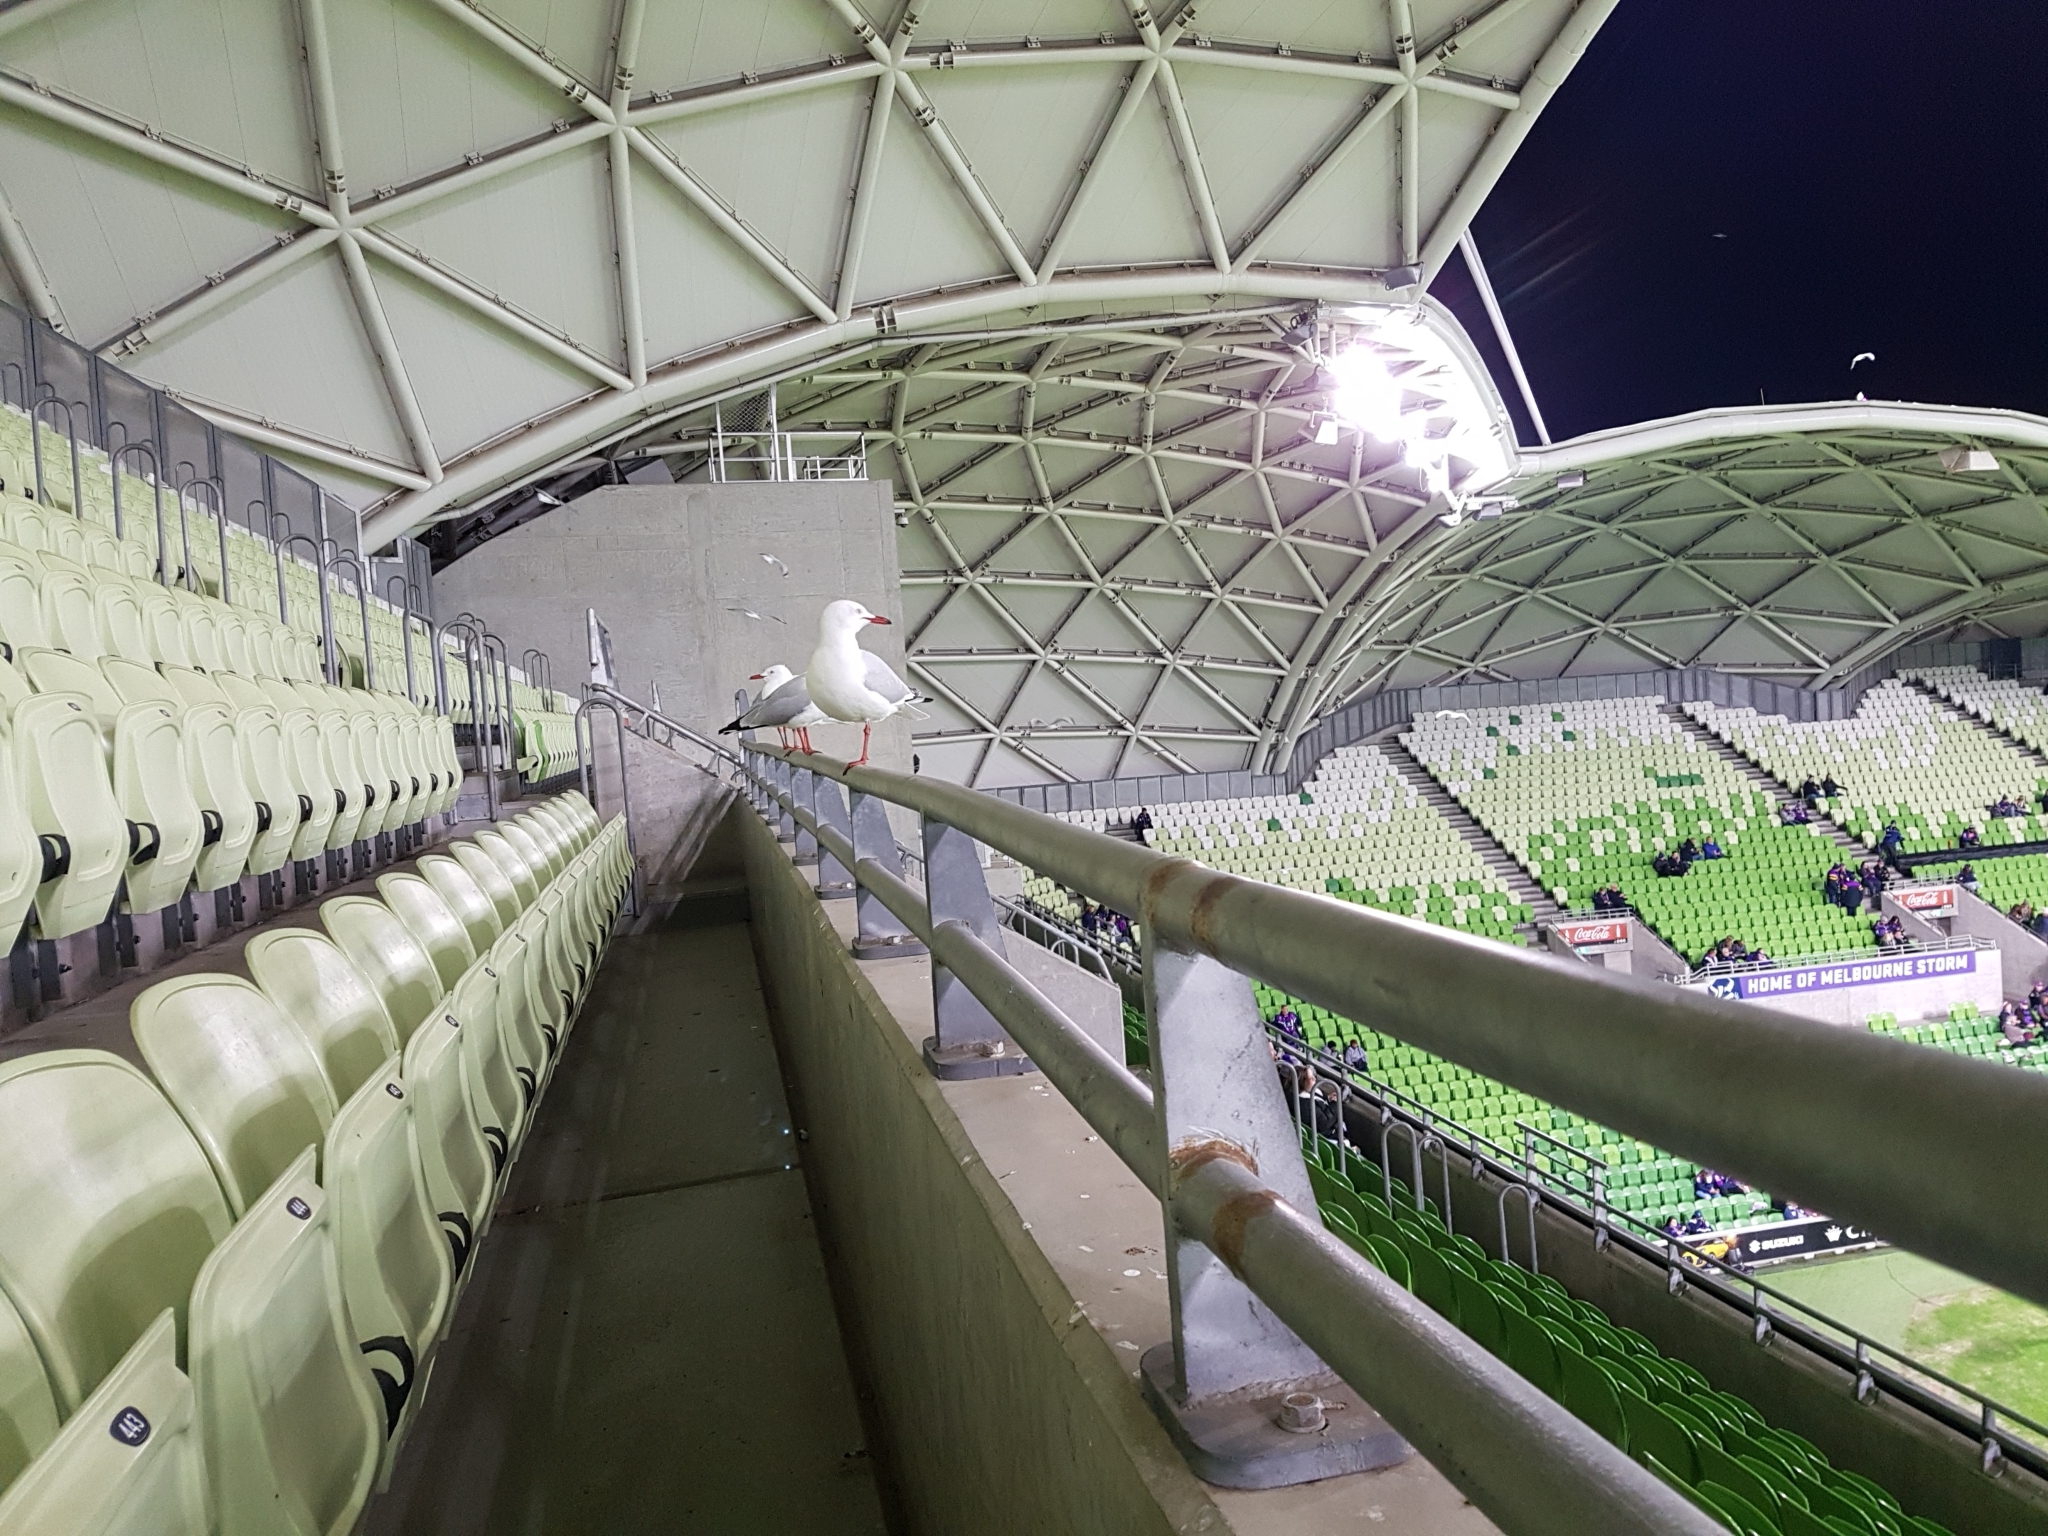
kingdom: Animalia
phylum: Chordata
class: Aves
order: Charadriiformes
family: Laridae
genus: Chroicocephalus
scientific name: Chroicocephalus novaehollandiae
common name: Silver gull
